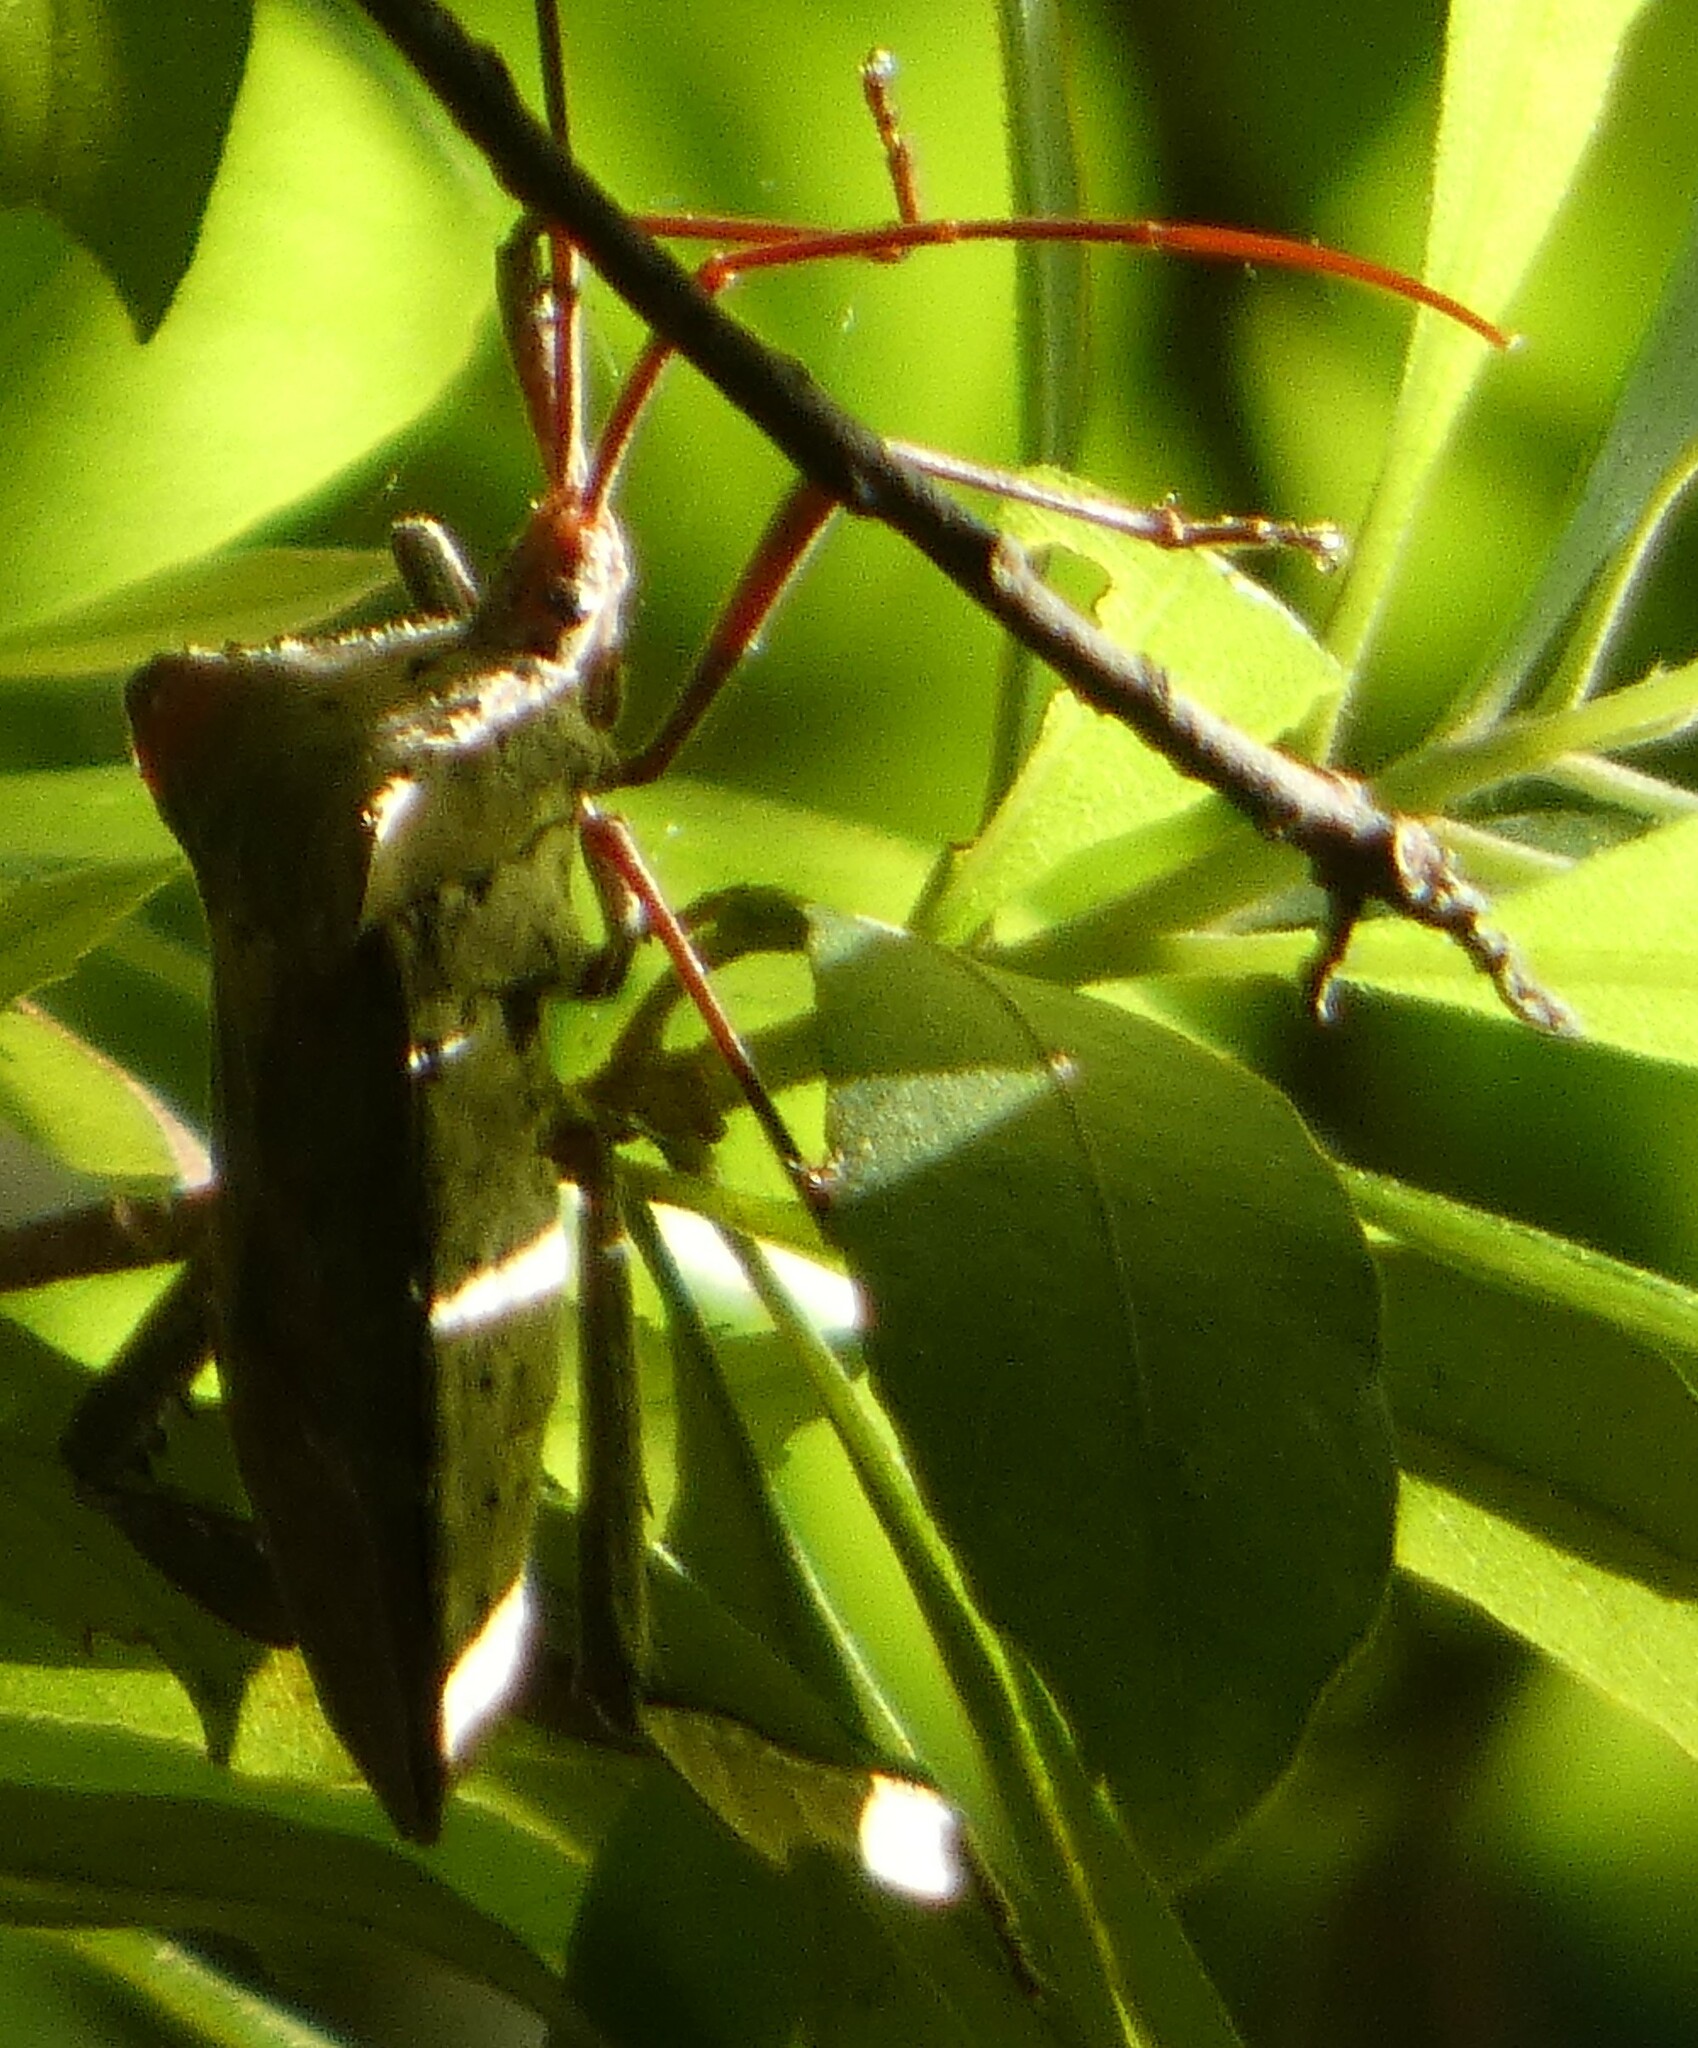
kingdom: Animalia
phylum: Arthropoda
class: Insecta
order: Hemiptera
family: Coreidae
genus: Acanthocephala
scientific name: Acanthocephala declivis
